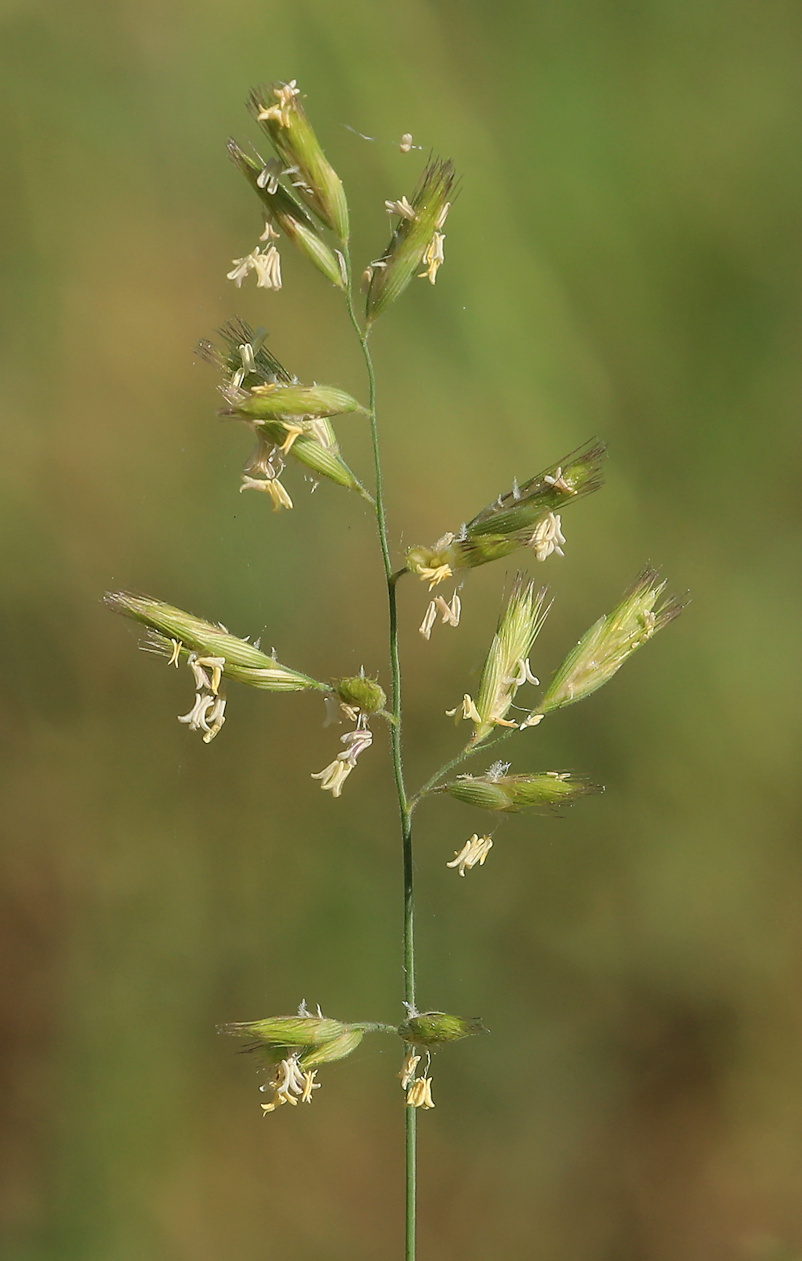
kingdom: Plantae
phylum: Tracheophyta
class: Liliopsida
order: Poales
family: Poaceae
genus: Schmidtia
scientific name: Schmidtia pappophoroides
